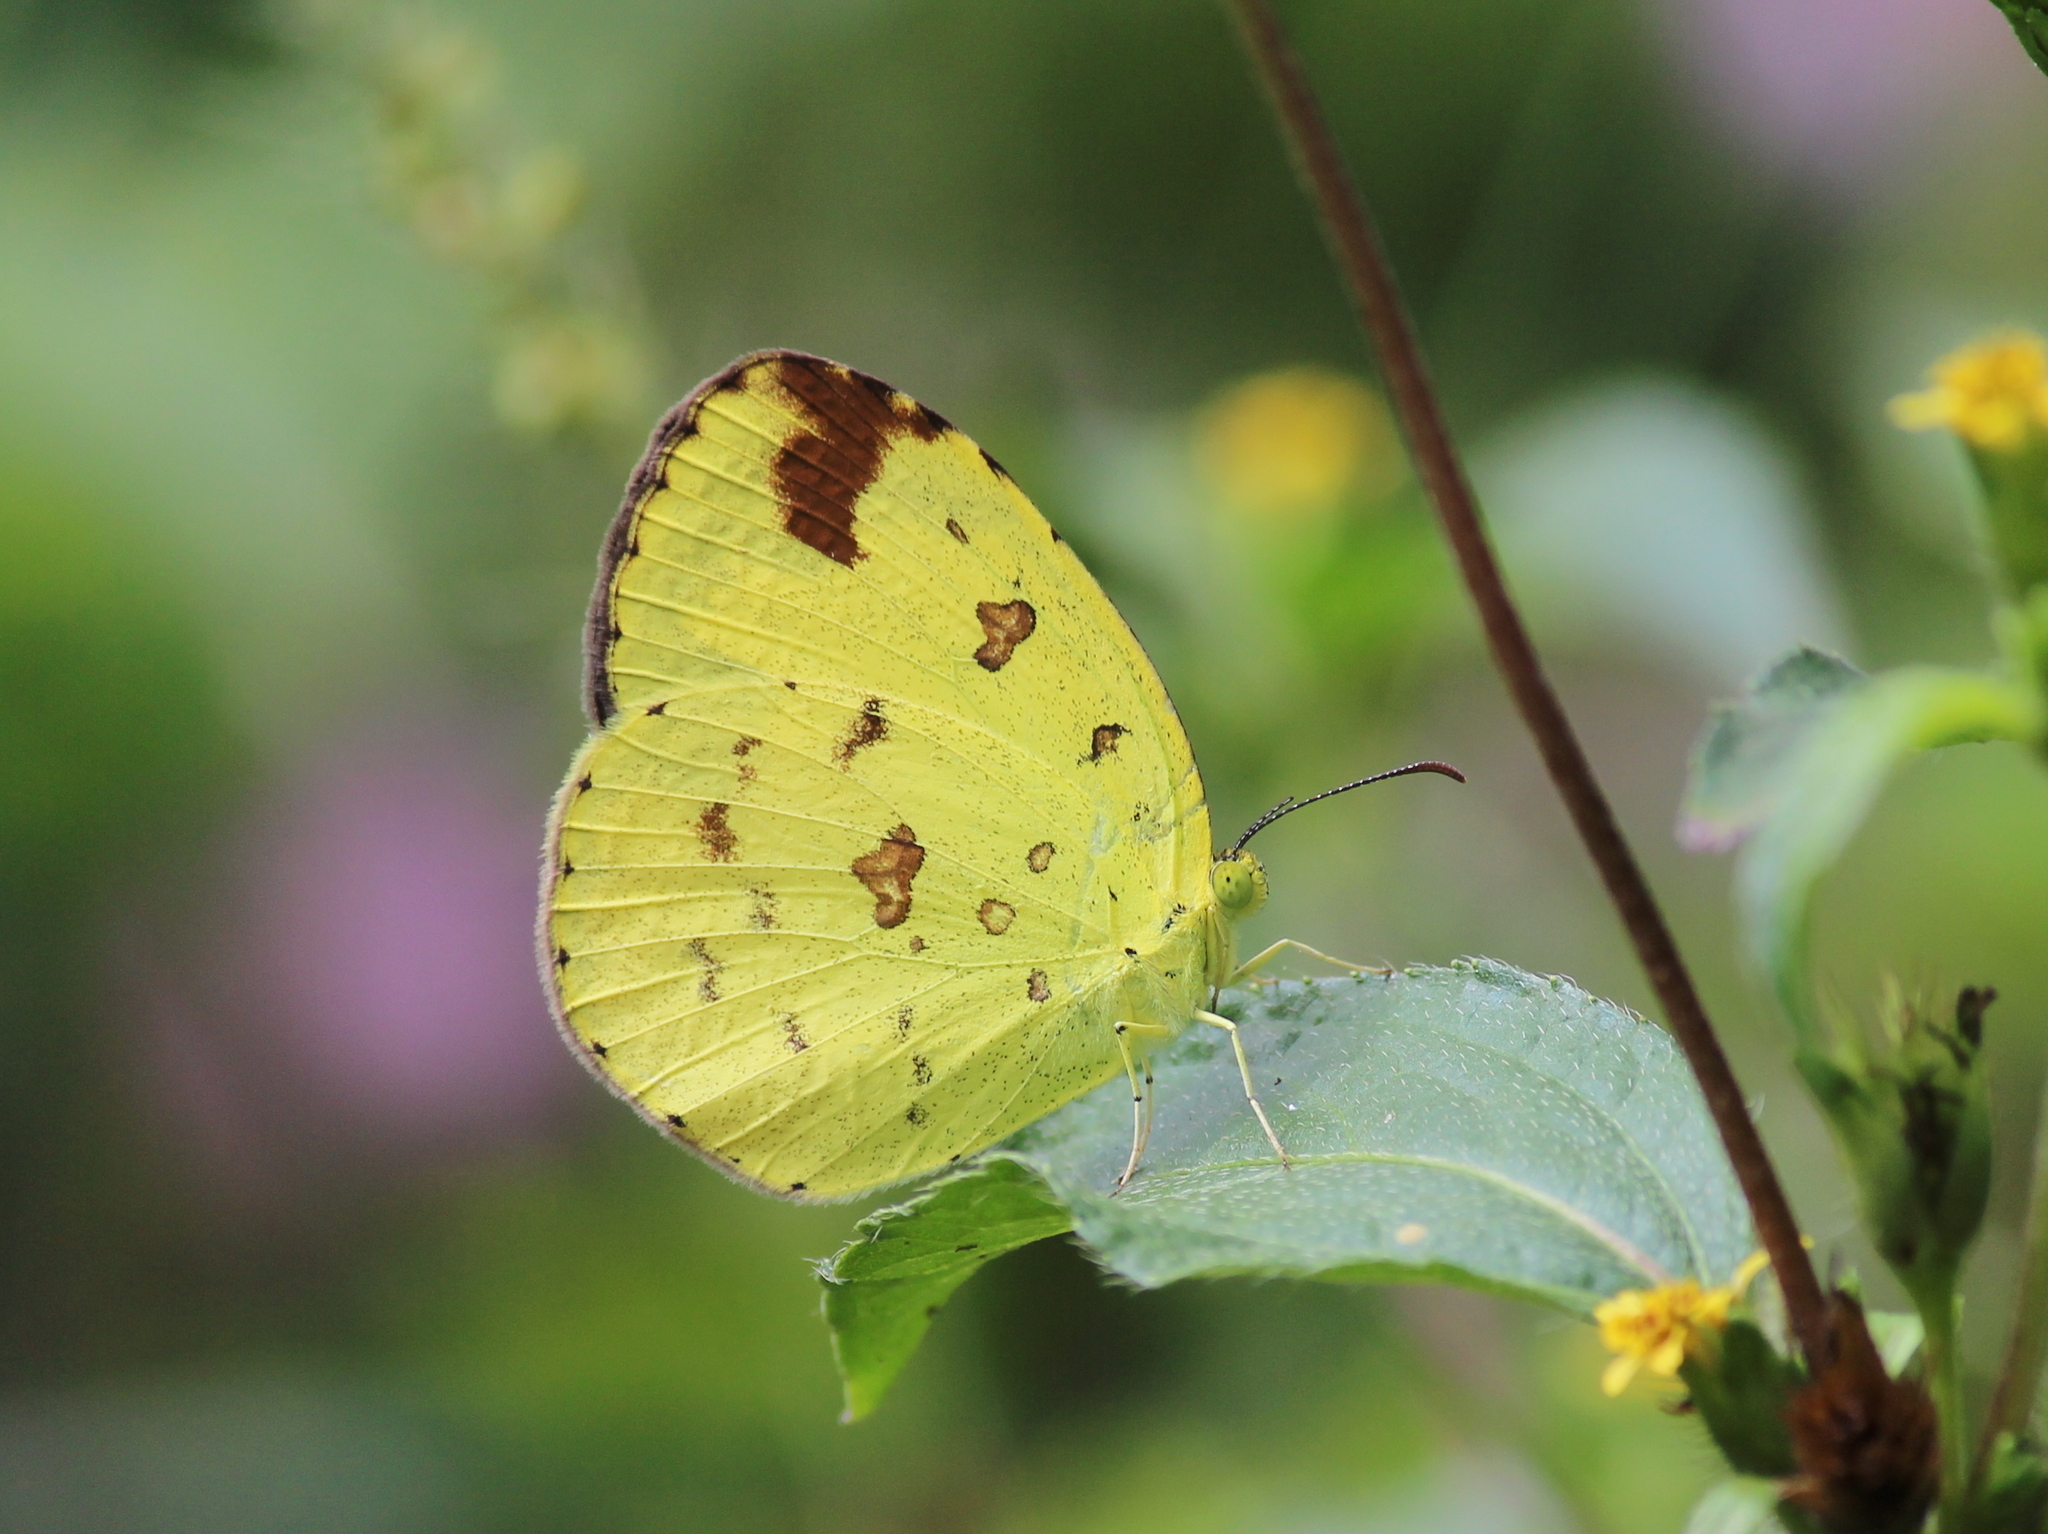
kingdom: Animalia
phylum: Arthropoda
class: Insecta
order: Lepidoptera
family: Pieridae
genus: Eurema
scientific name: Eurema hecabe
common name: Pale grass yellow
